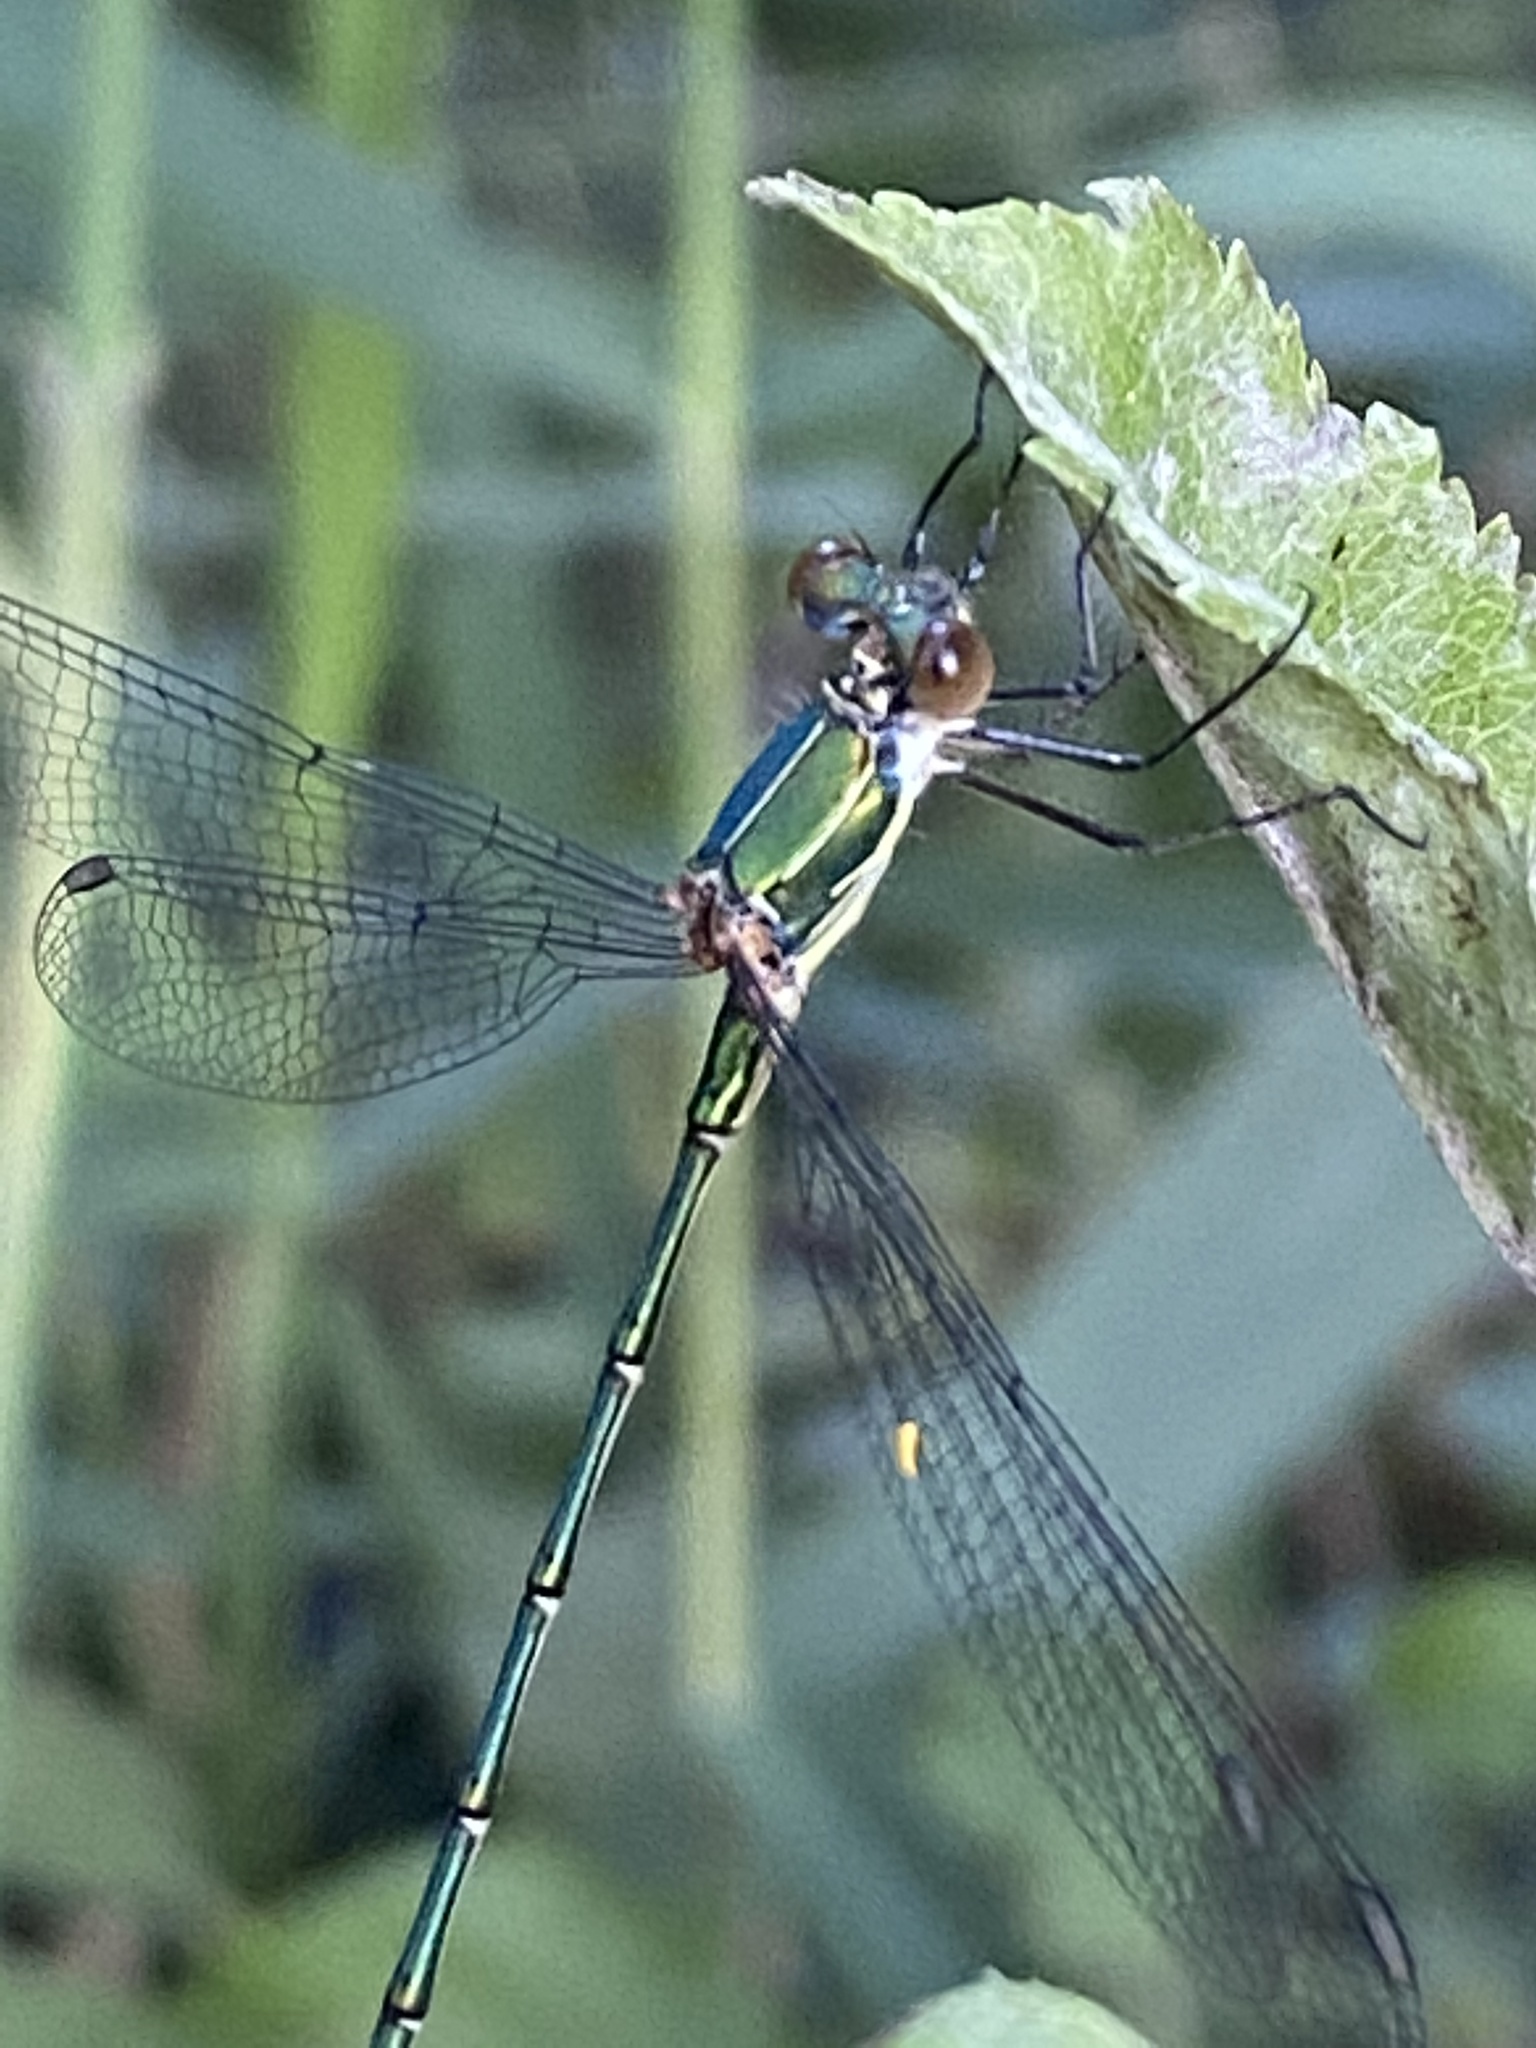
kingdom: Animalia
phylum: Arthropoda
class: Insecta
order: Odonata
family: Lestidae
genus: Chalcolestes
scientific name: Chalcolestes viridis
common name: Green emerald damselfly
